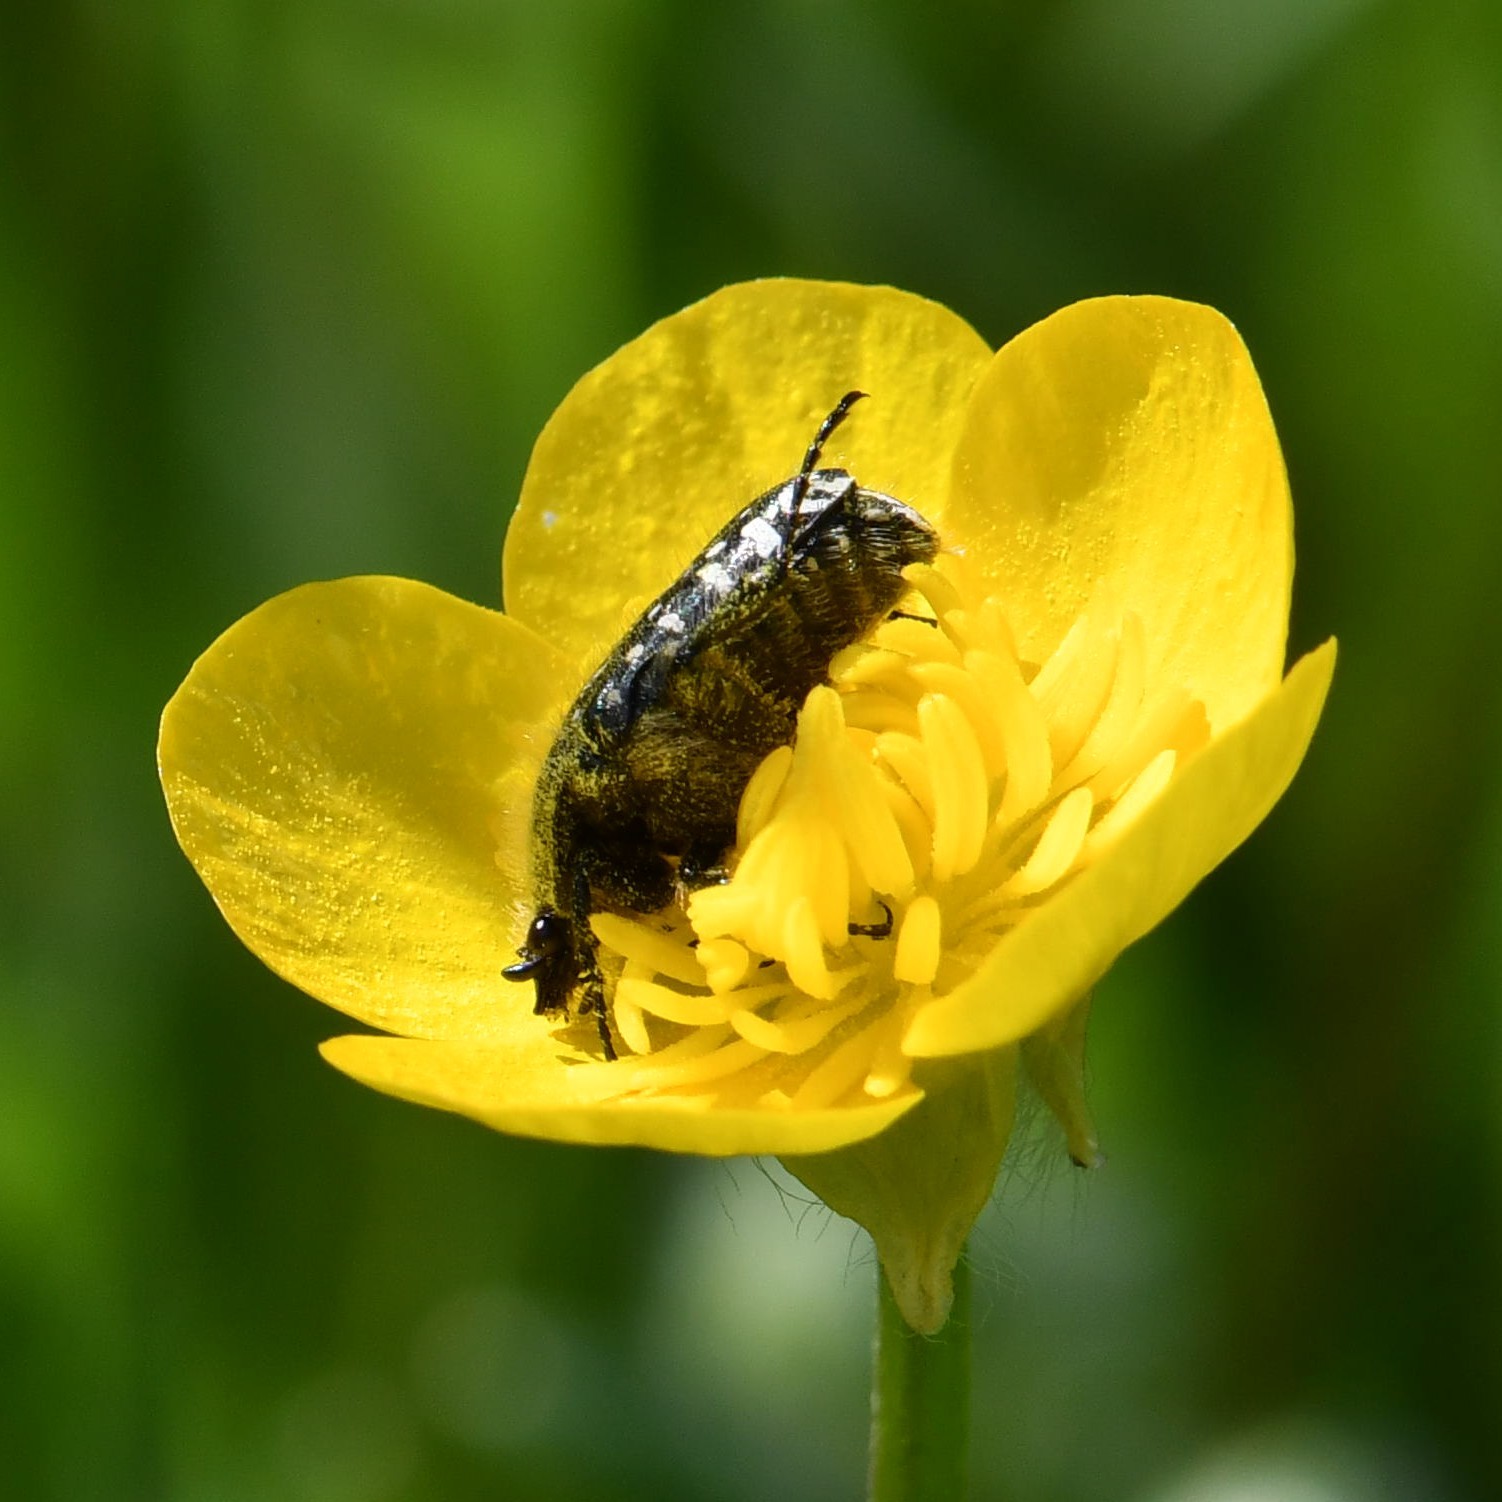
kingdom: Animalia
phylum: Arthropoda
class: Insecta
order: Coleoptera
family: Scarabaeidae
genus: Oxythyrea
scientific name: Oxythyrea funesta
